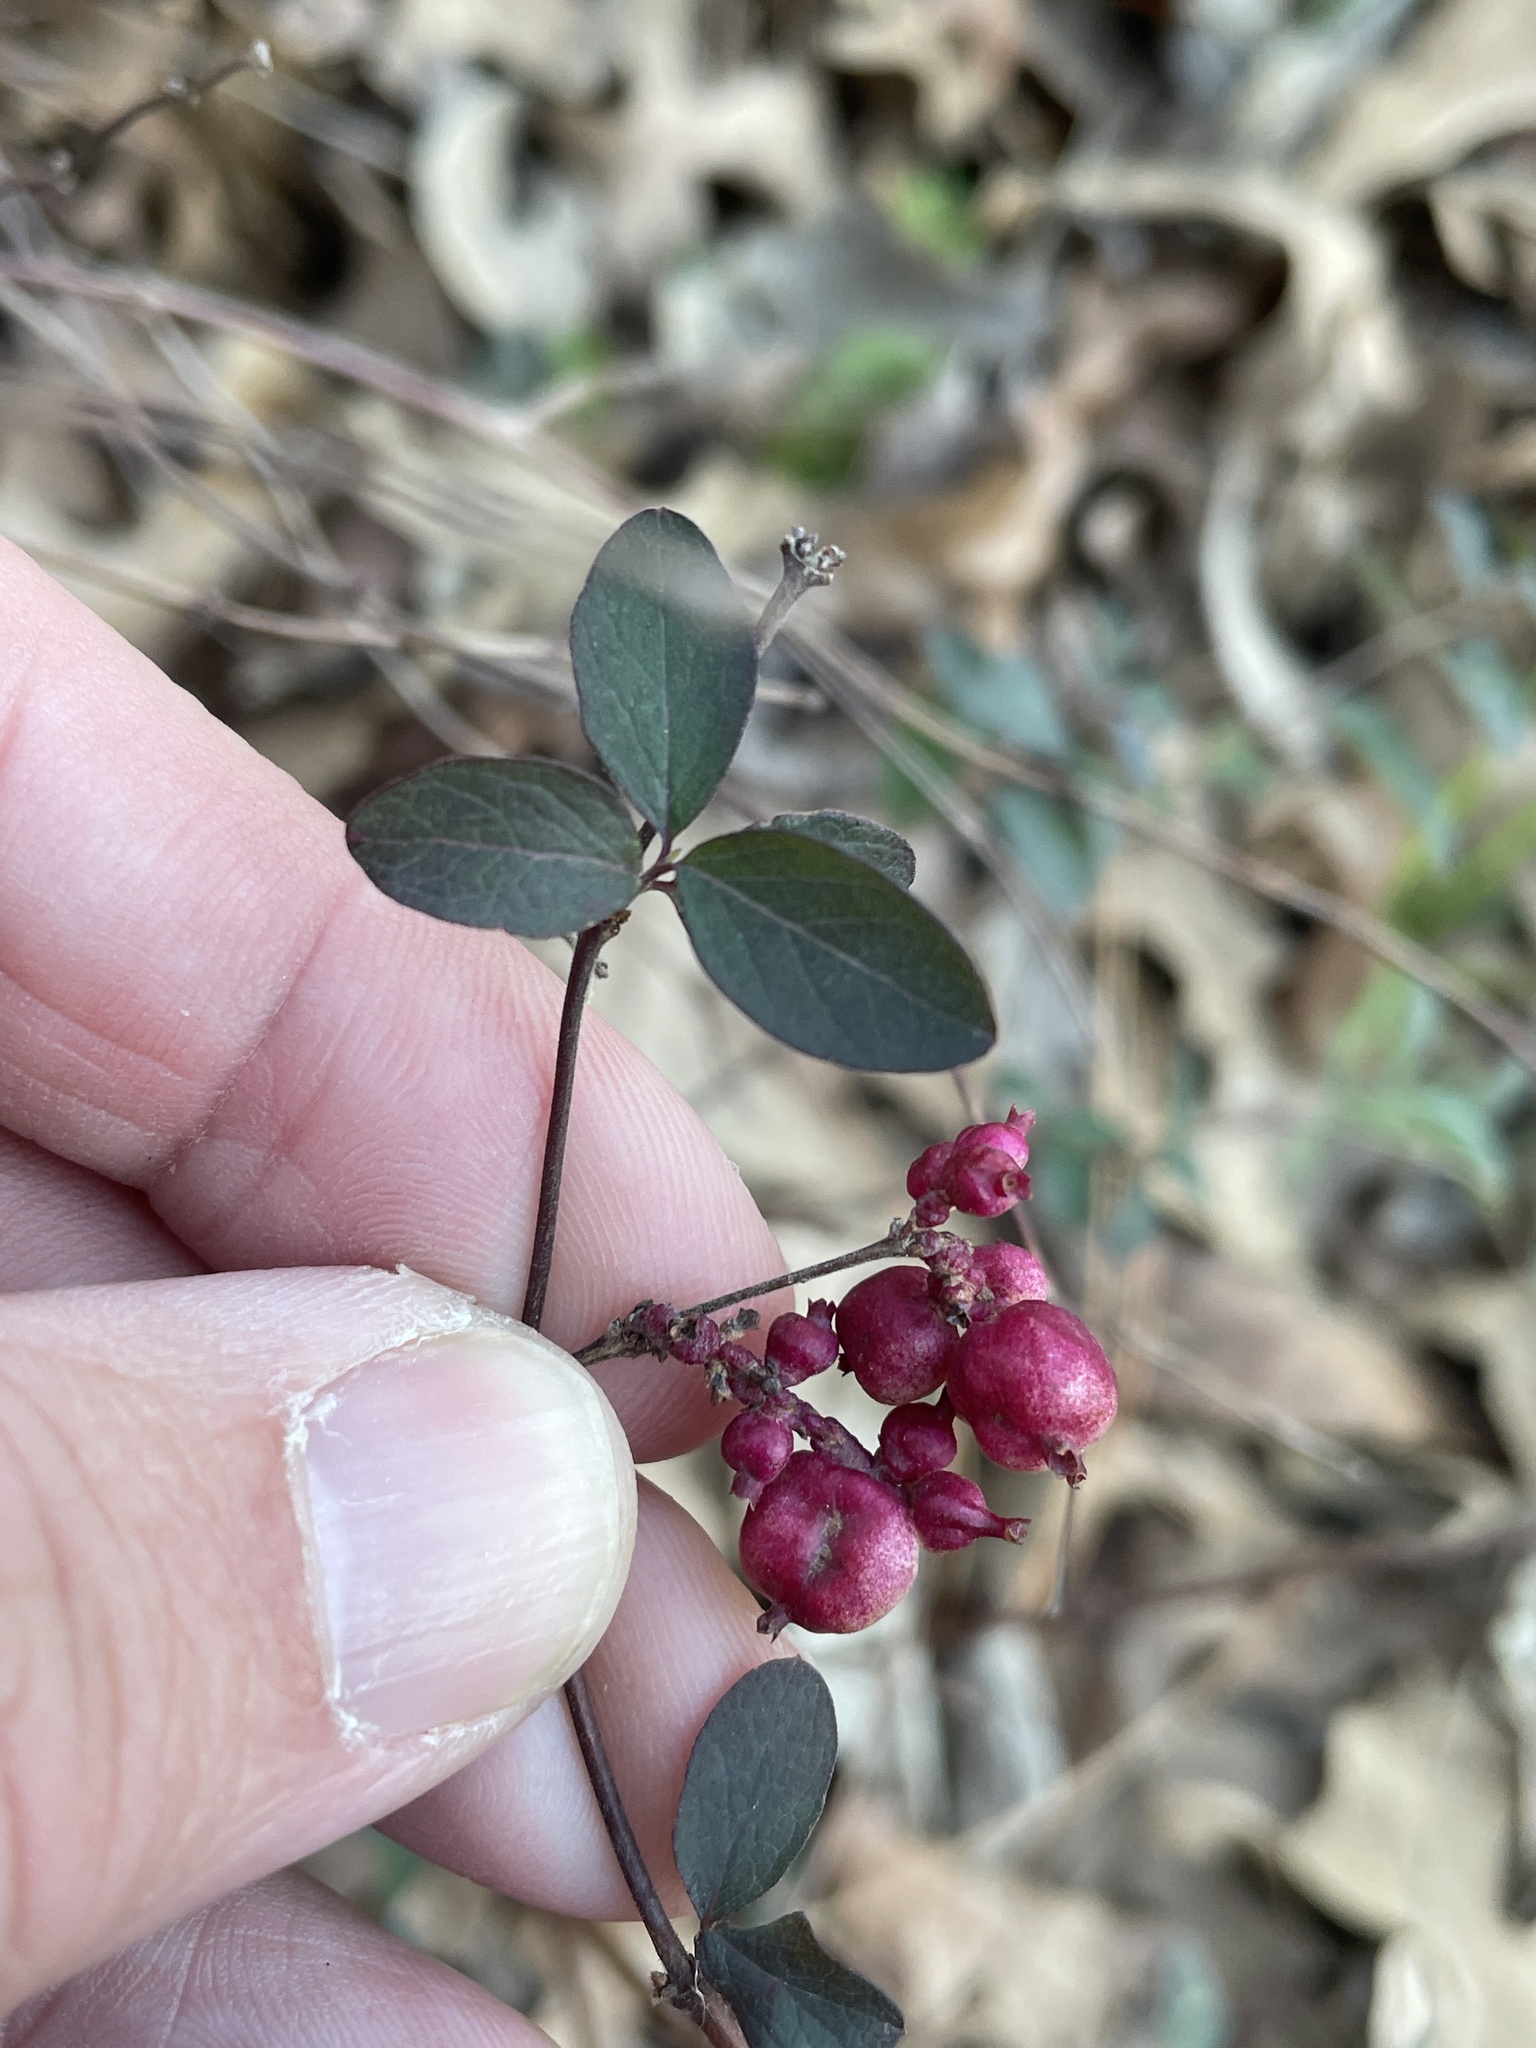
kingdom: Plantae
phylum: Tracheophyta
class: Magnoliopsida
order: Dipsacales
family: Caprifoliaceae
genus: Symphoricarpos
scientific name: Symphoricarpos orbiculatus
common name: Coralberry
